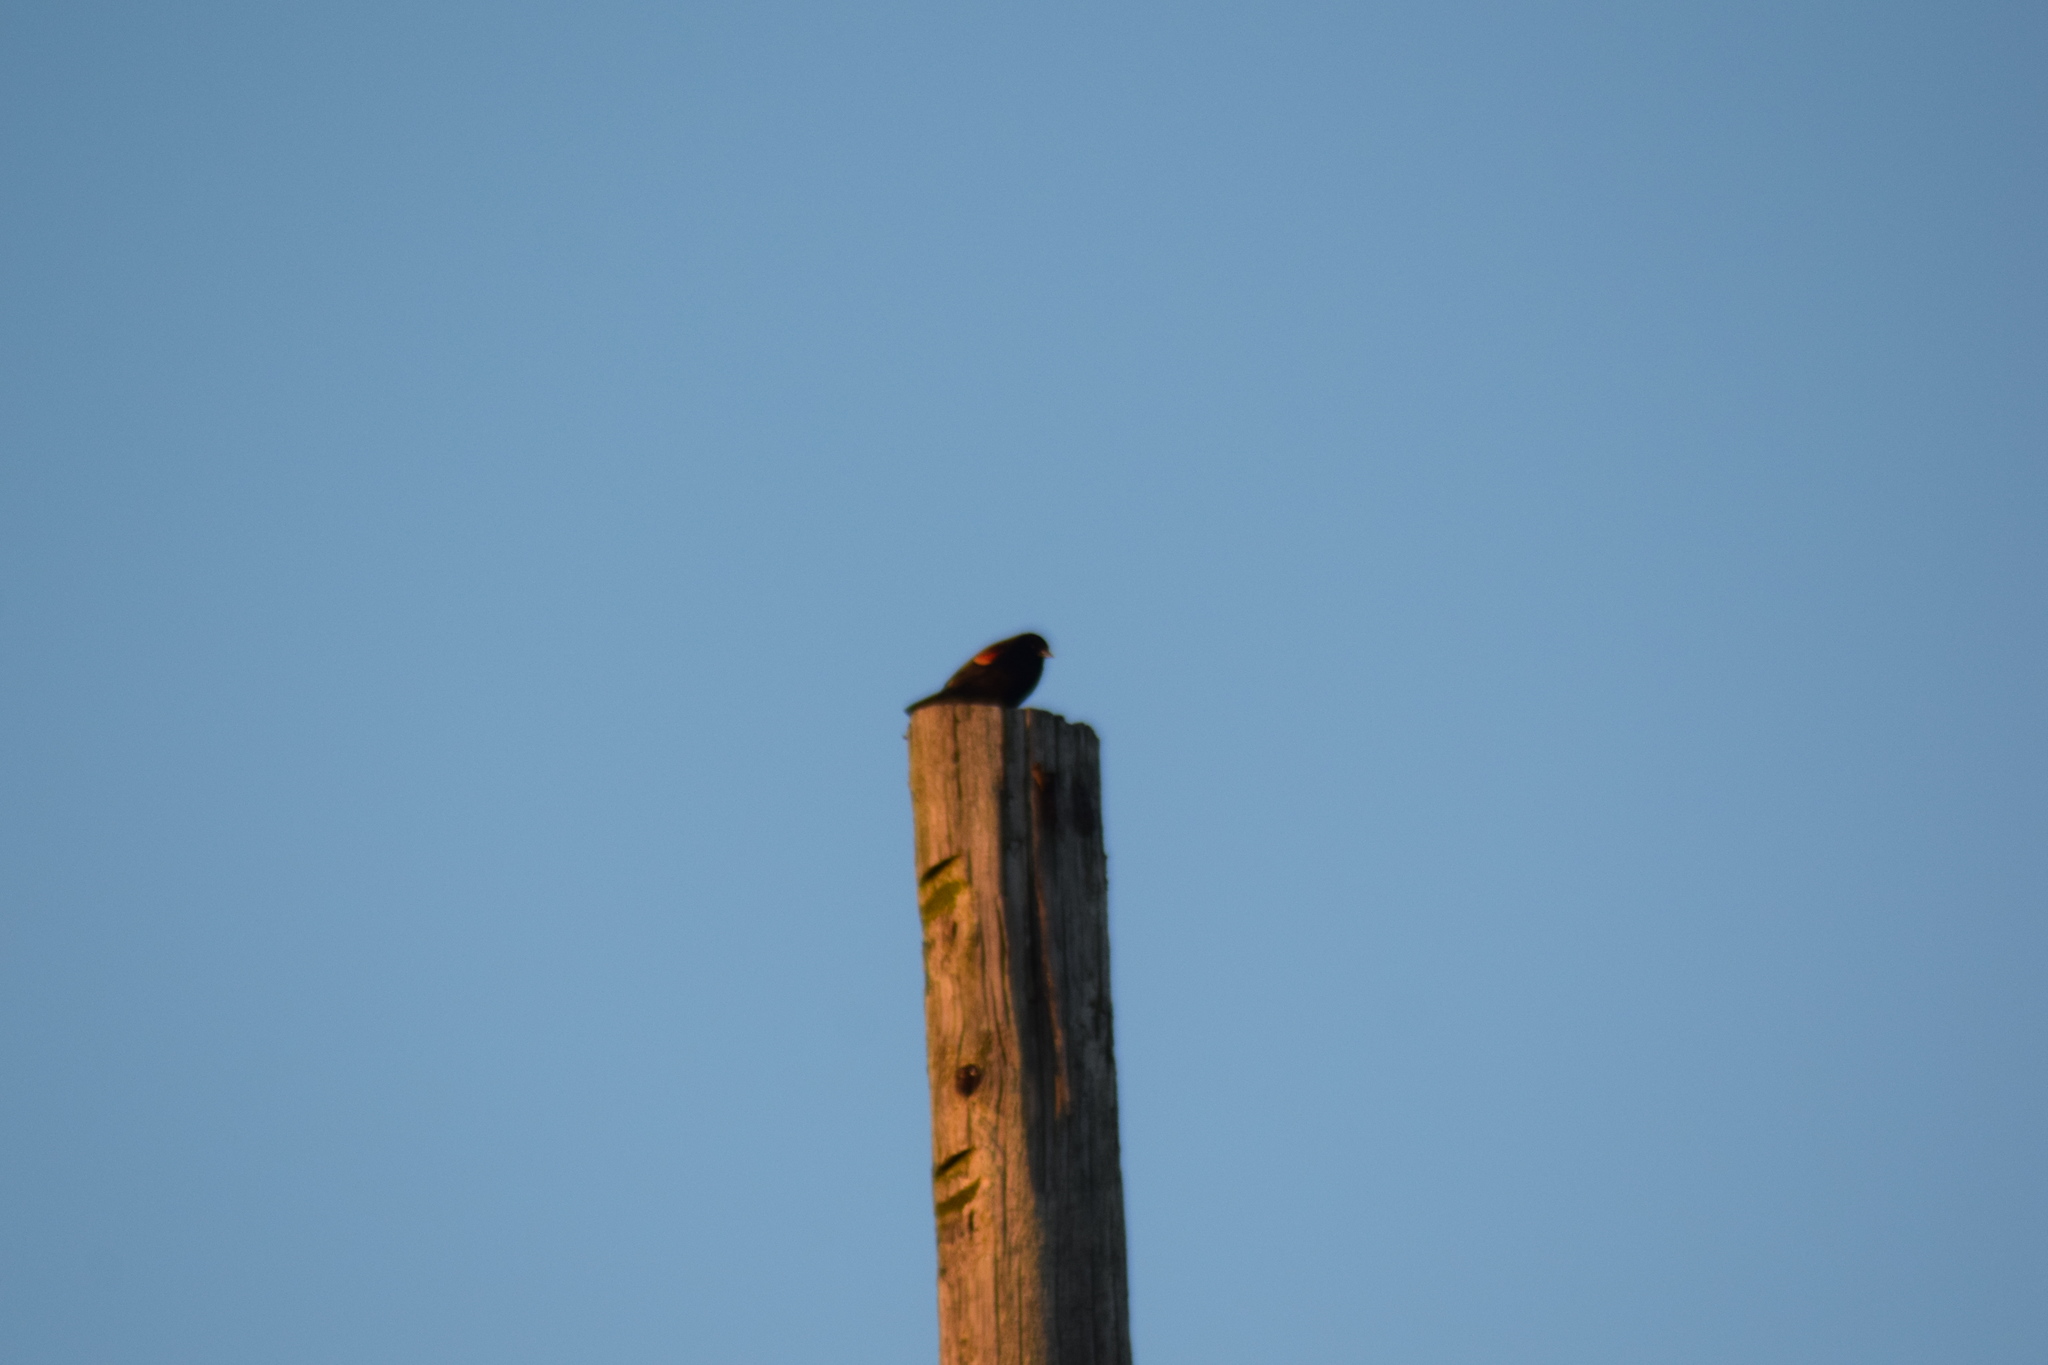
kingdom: Animalia
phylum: Chordata
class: Aves
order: Passeriformes
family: Icteridae
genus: Agelaius
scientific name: Agelaius phoeniceus
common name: Red-winged blackbird
